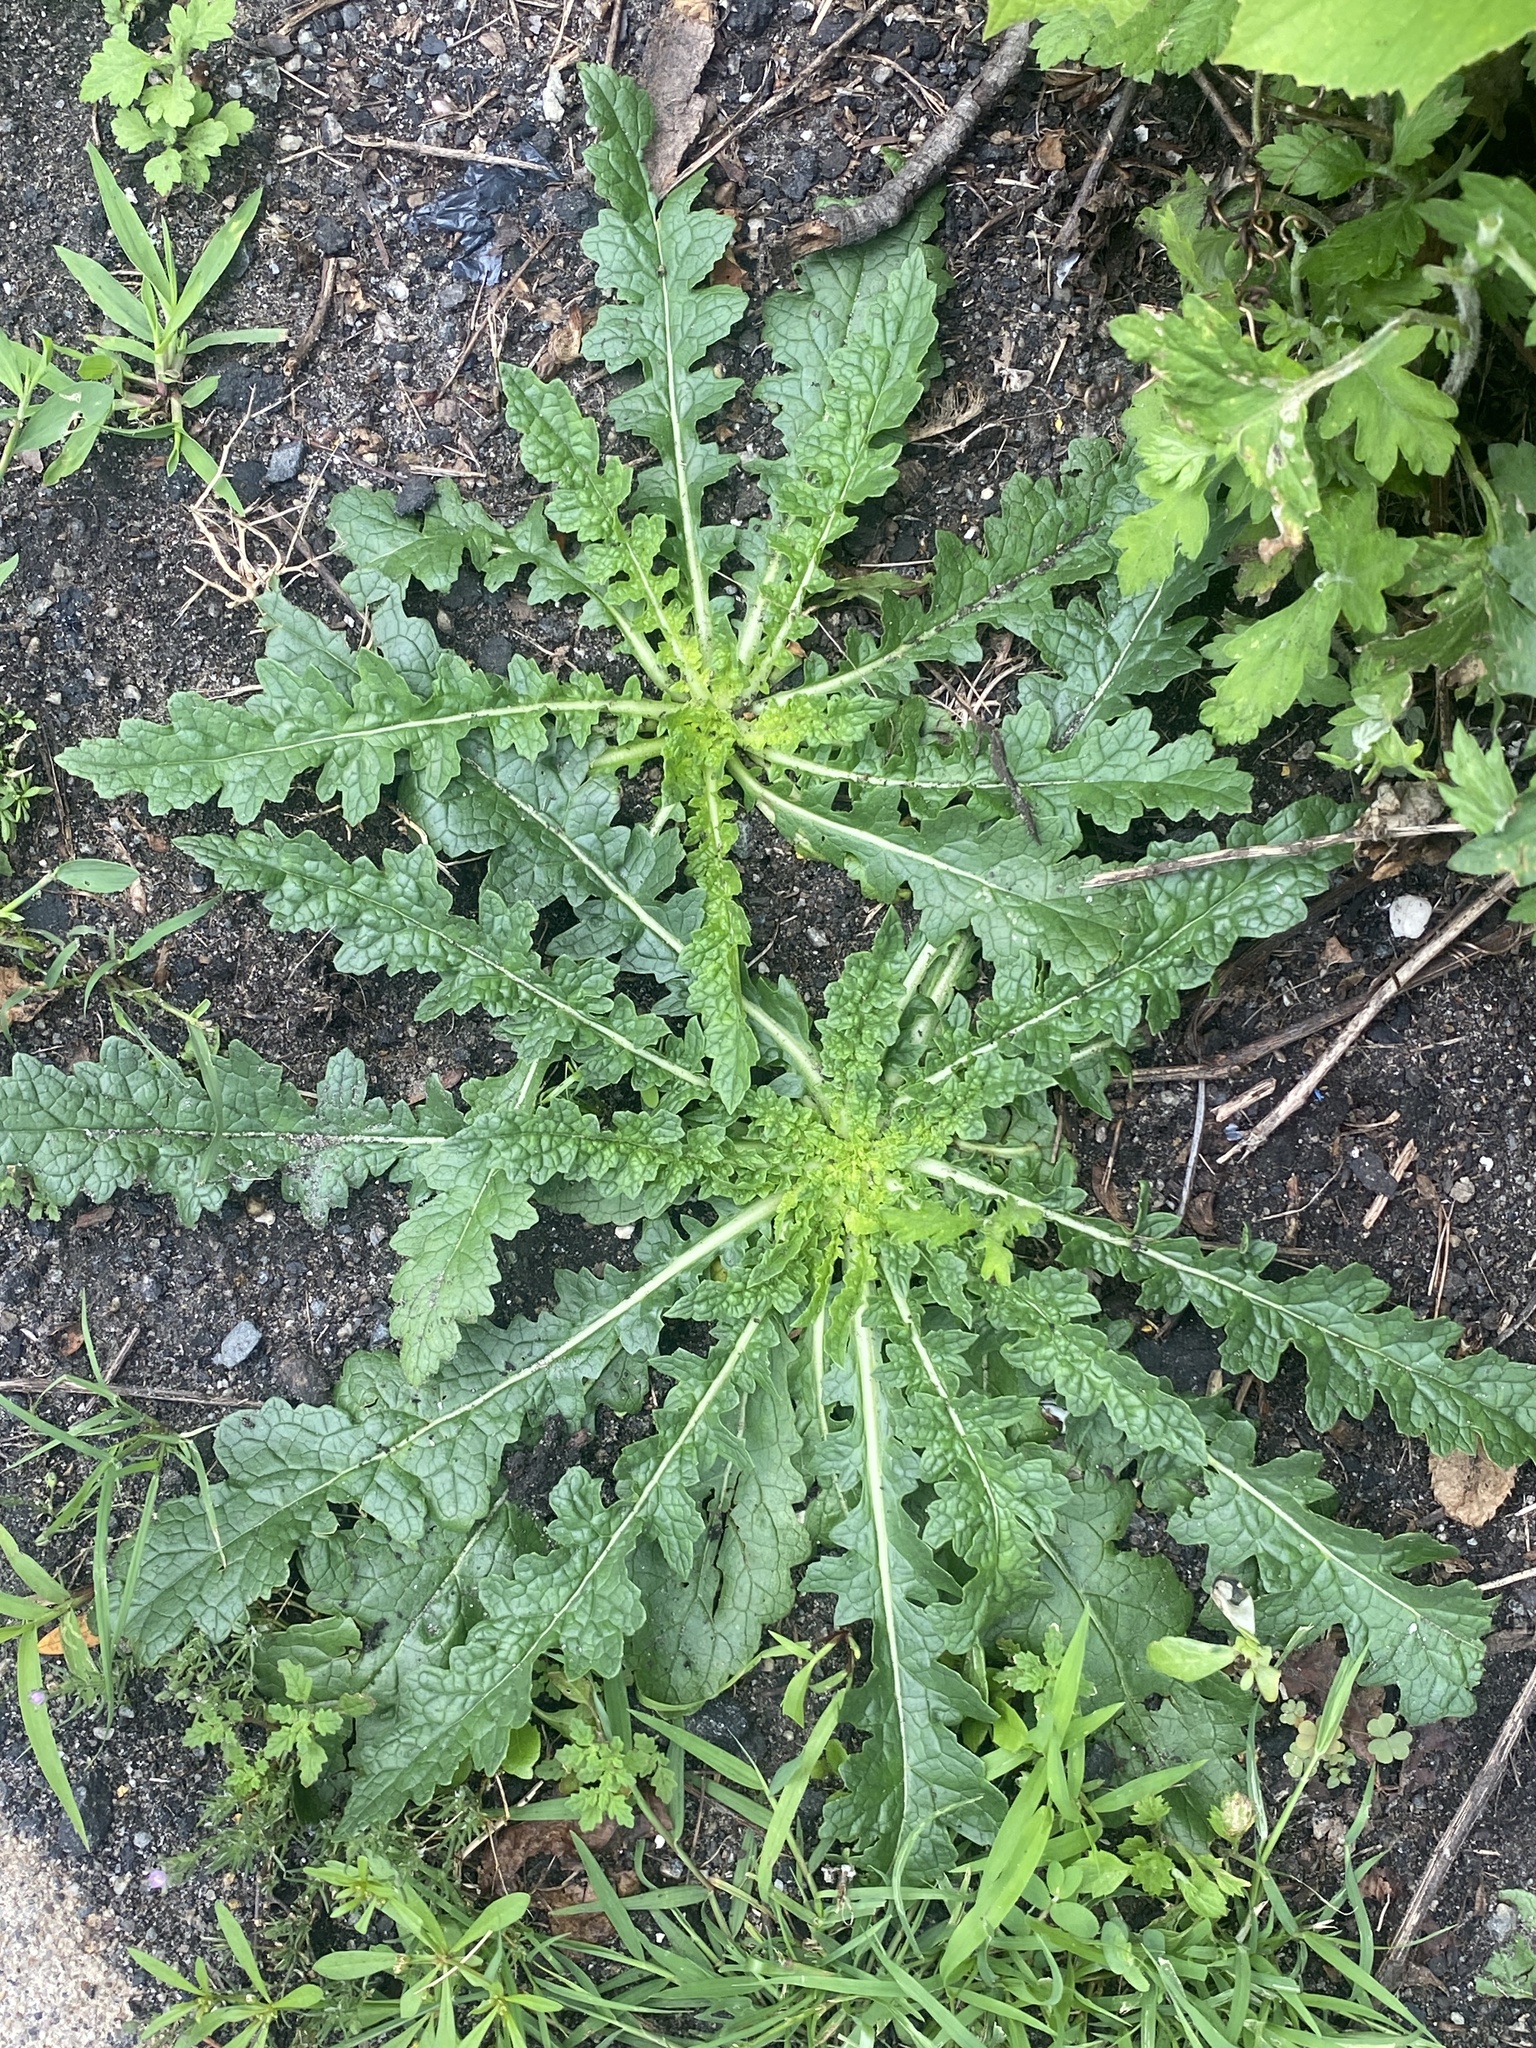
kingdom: Plantae
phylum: Tracheophyta
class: Magnoliopsida
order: Lamiales
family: Scrophulariaceae
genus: Verbascum
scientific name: Verbascum blattaria
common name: Moth mullein
